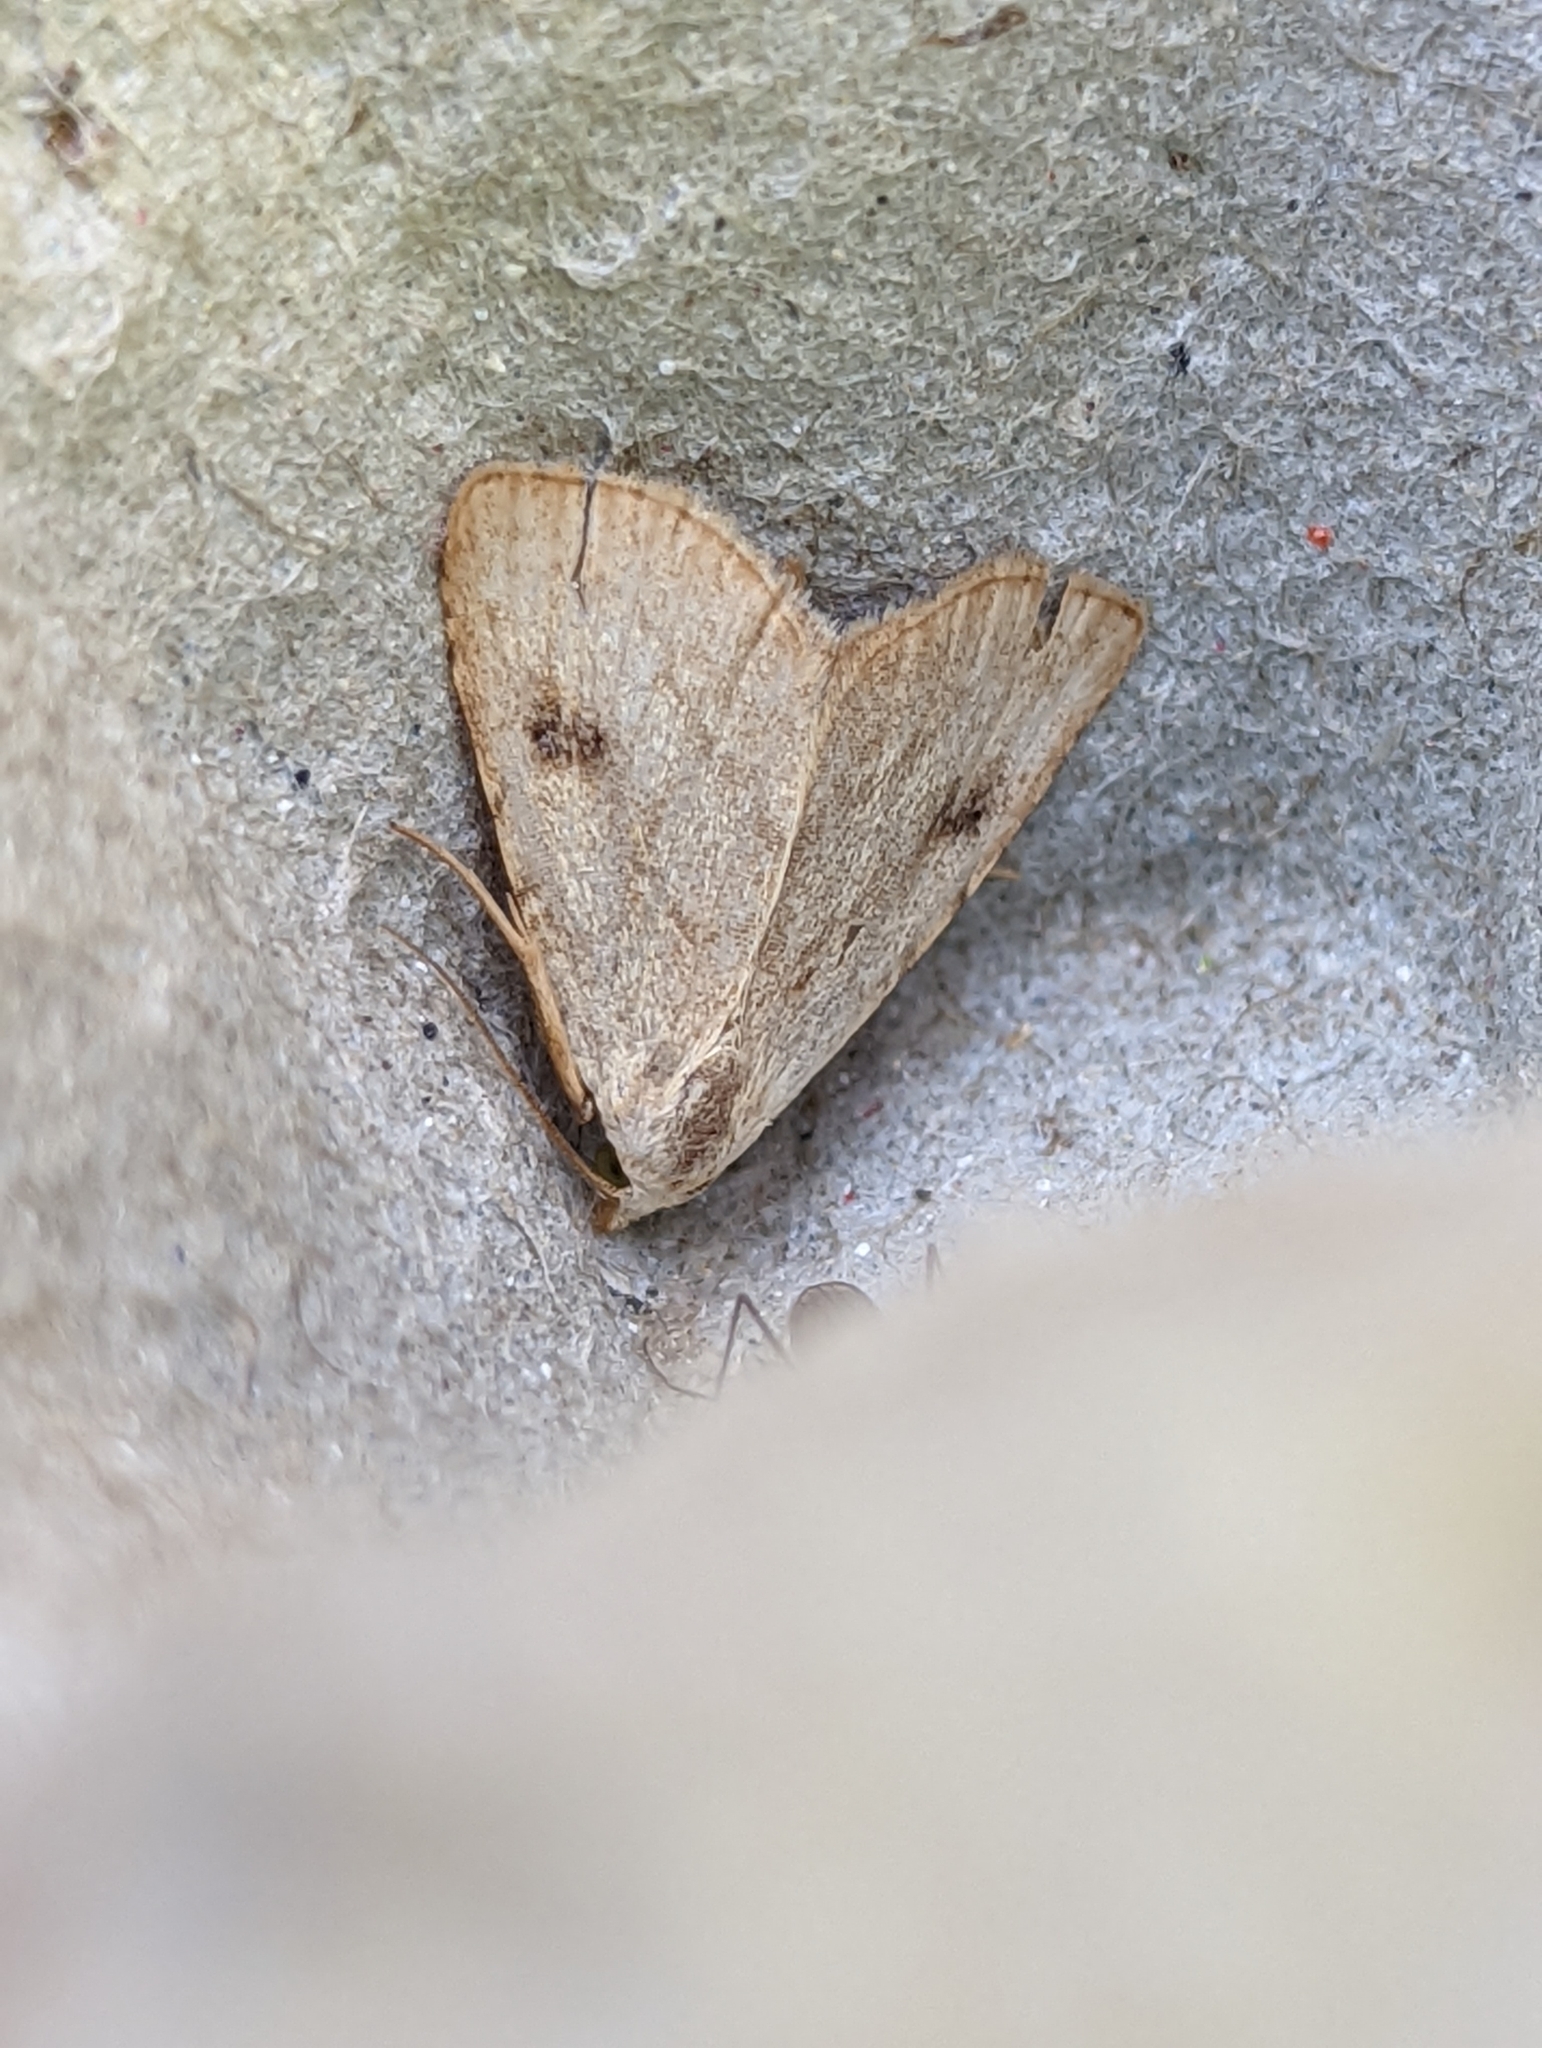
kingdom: Animalia
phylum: Arthropoda
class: Insecta
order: Lepidoptera
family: Erebidae
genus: Rivula
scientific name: Rivula sericealis
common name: Straw dot
